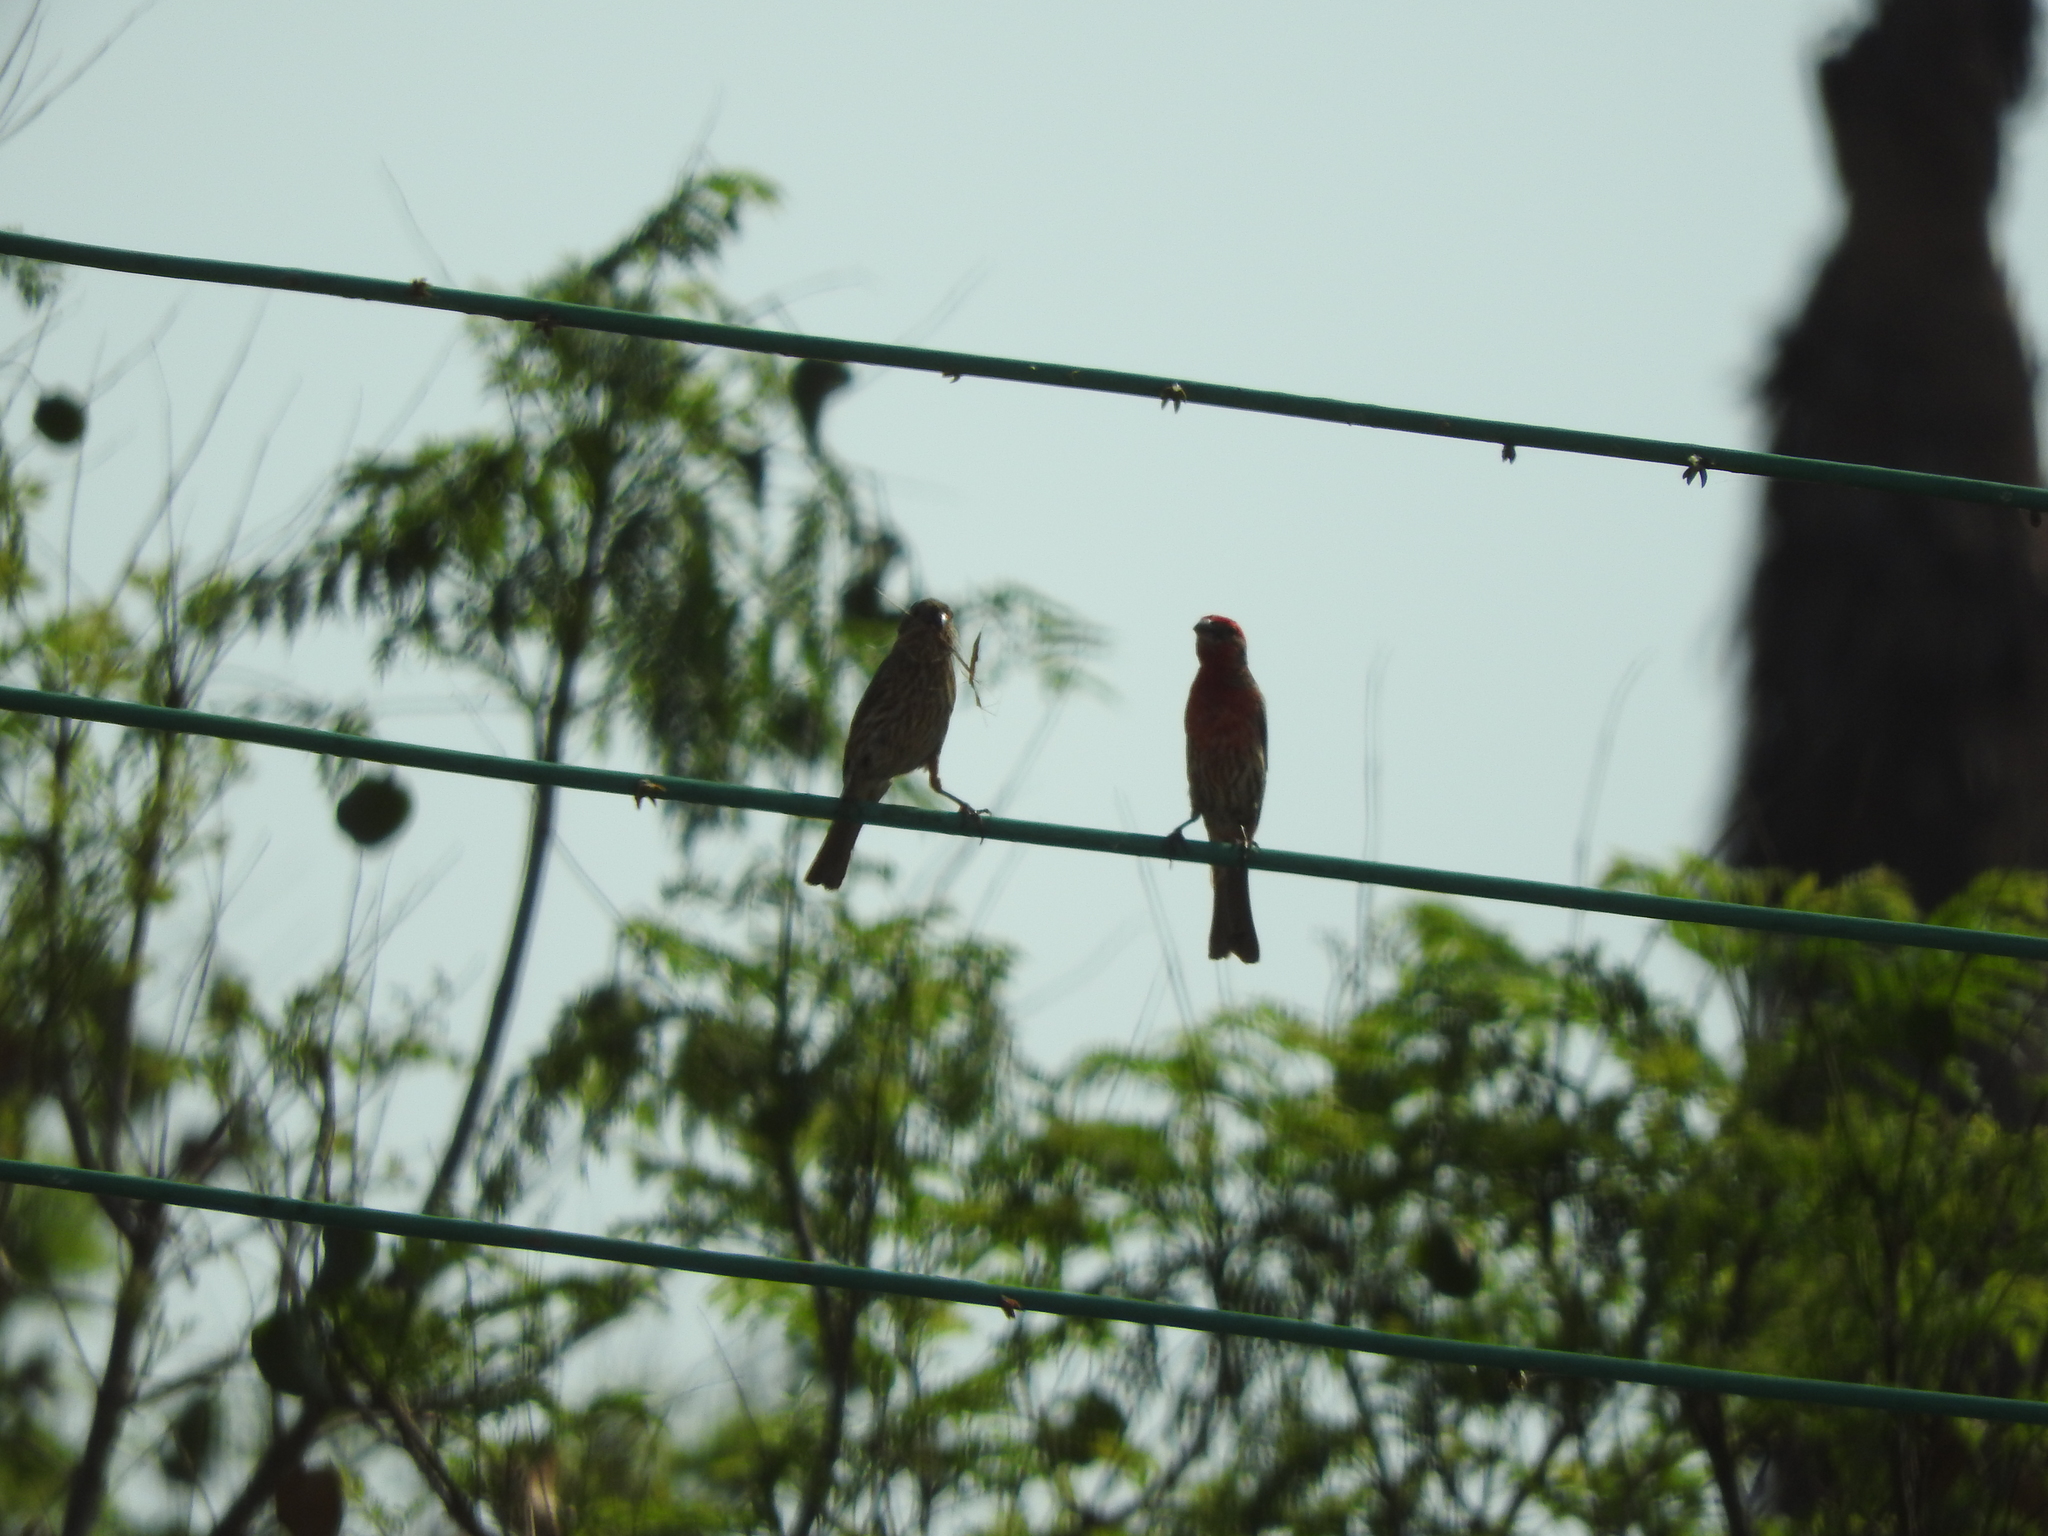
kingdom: Animalia
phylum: Chordata
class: Aves
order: Passeriformes
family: Fringillidae
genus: Haemorhous
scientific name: Haemorhous mexicanus
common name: House finch
